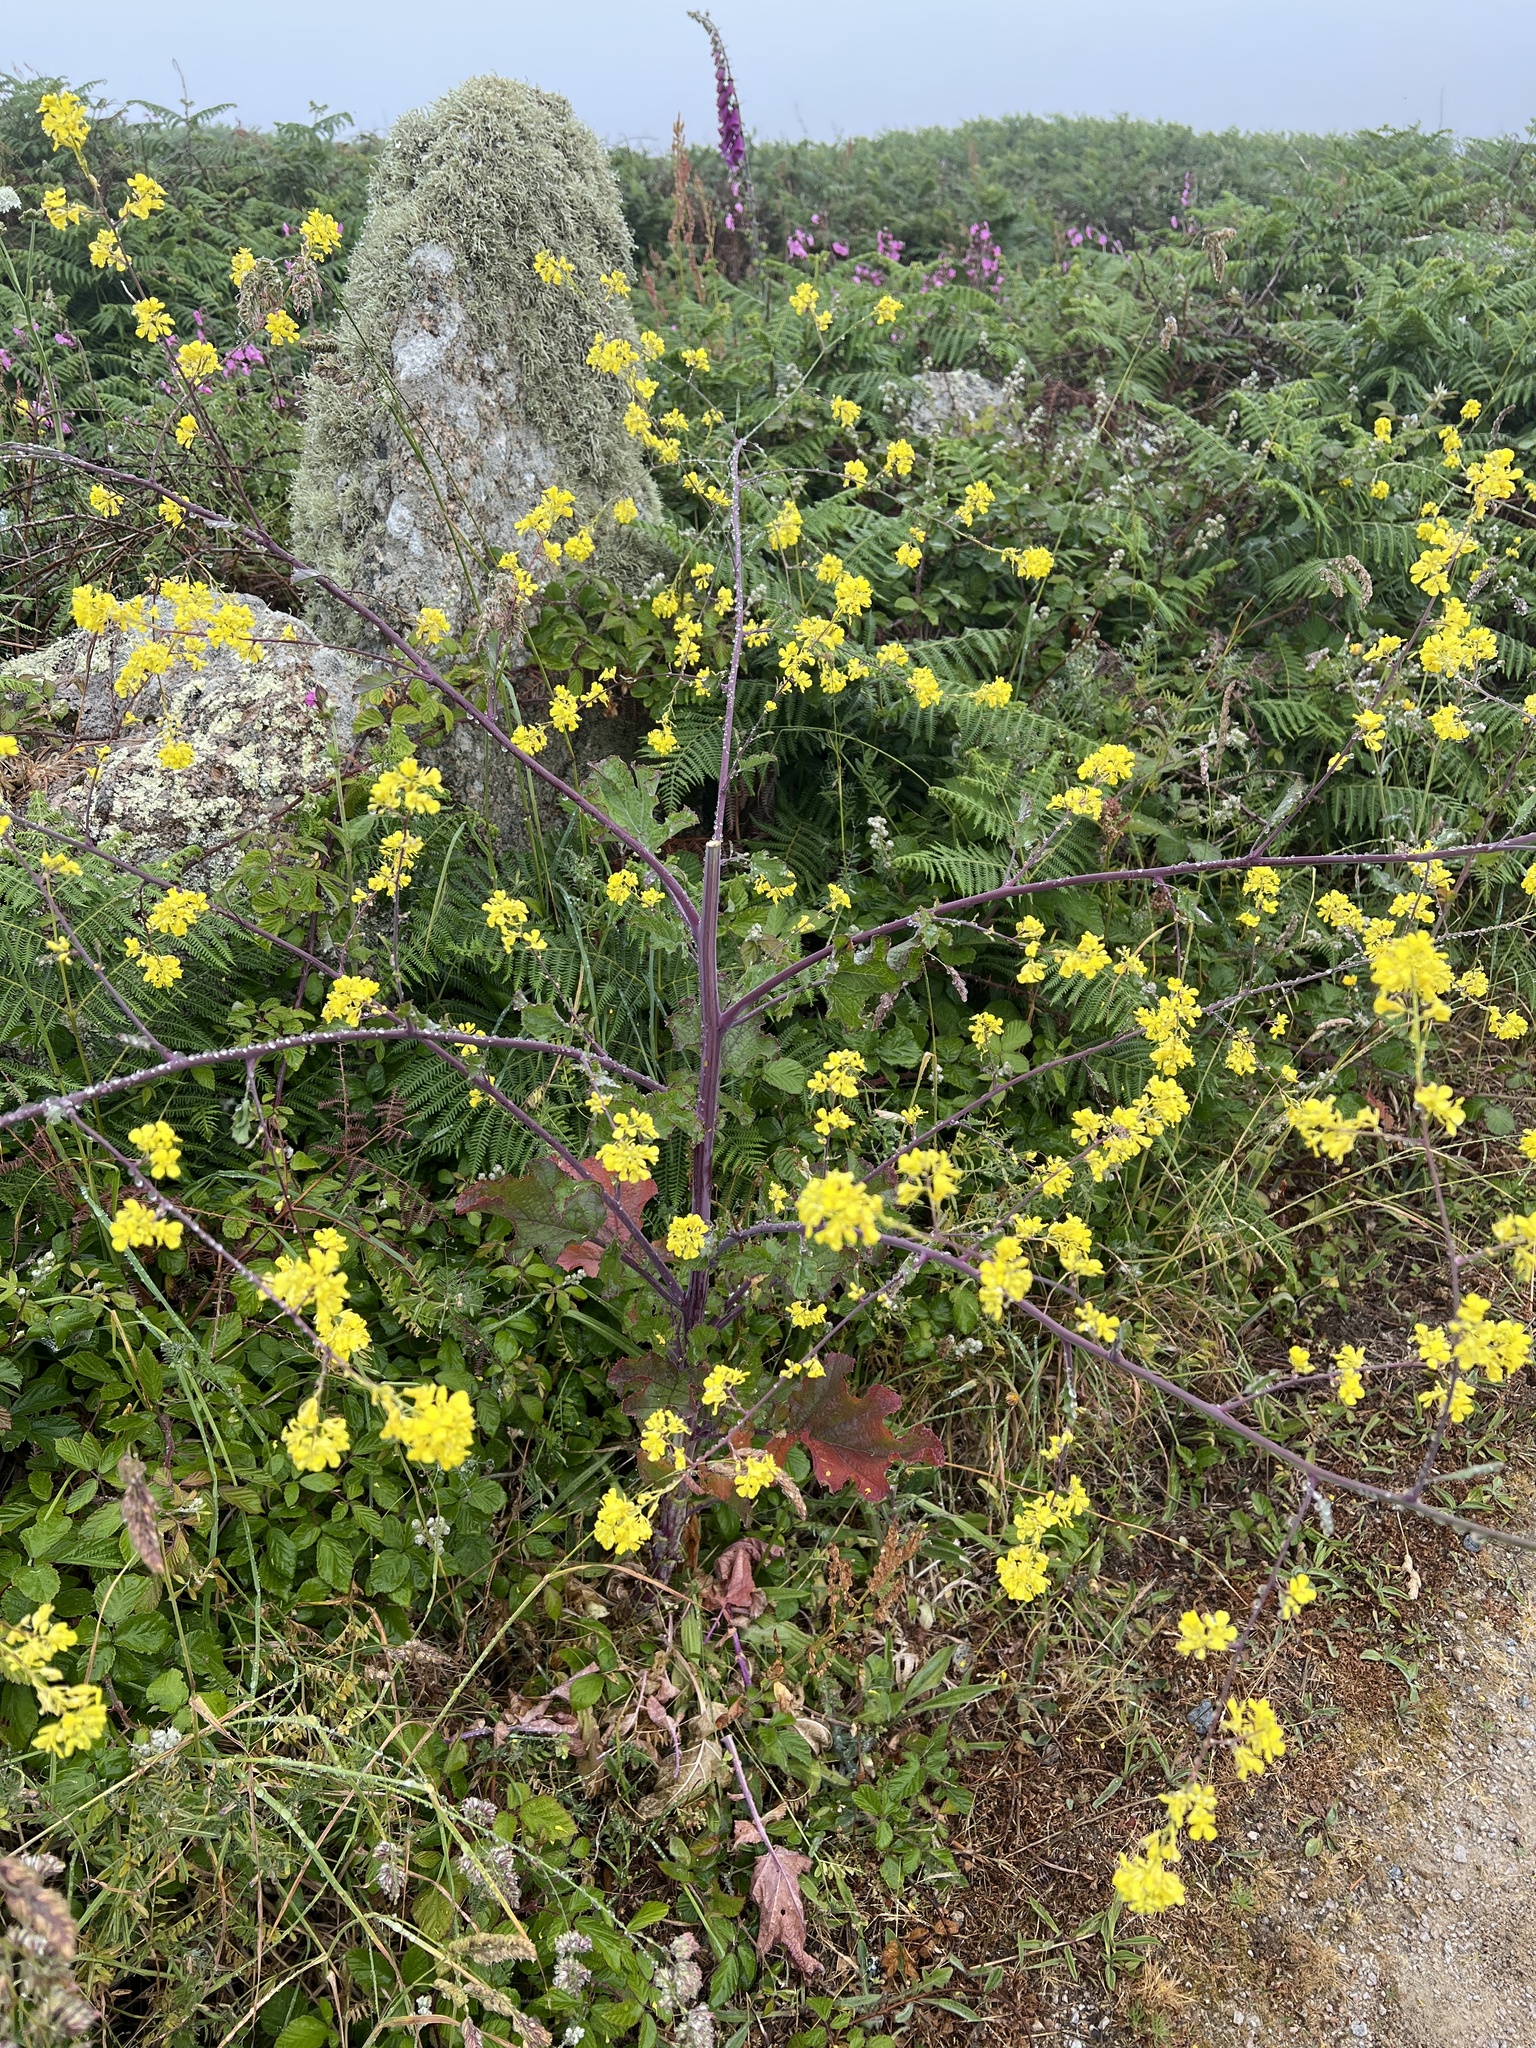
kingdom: Plantae
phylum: Tracheophyta
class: Magnoliopsida
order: Brassicales
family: Brassicaceae
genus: Brassica
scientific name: Brassica nigra
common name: Black mustard
